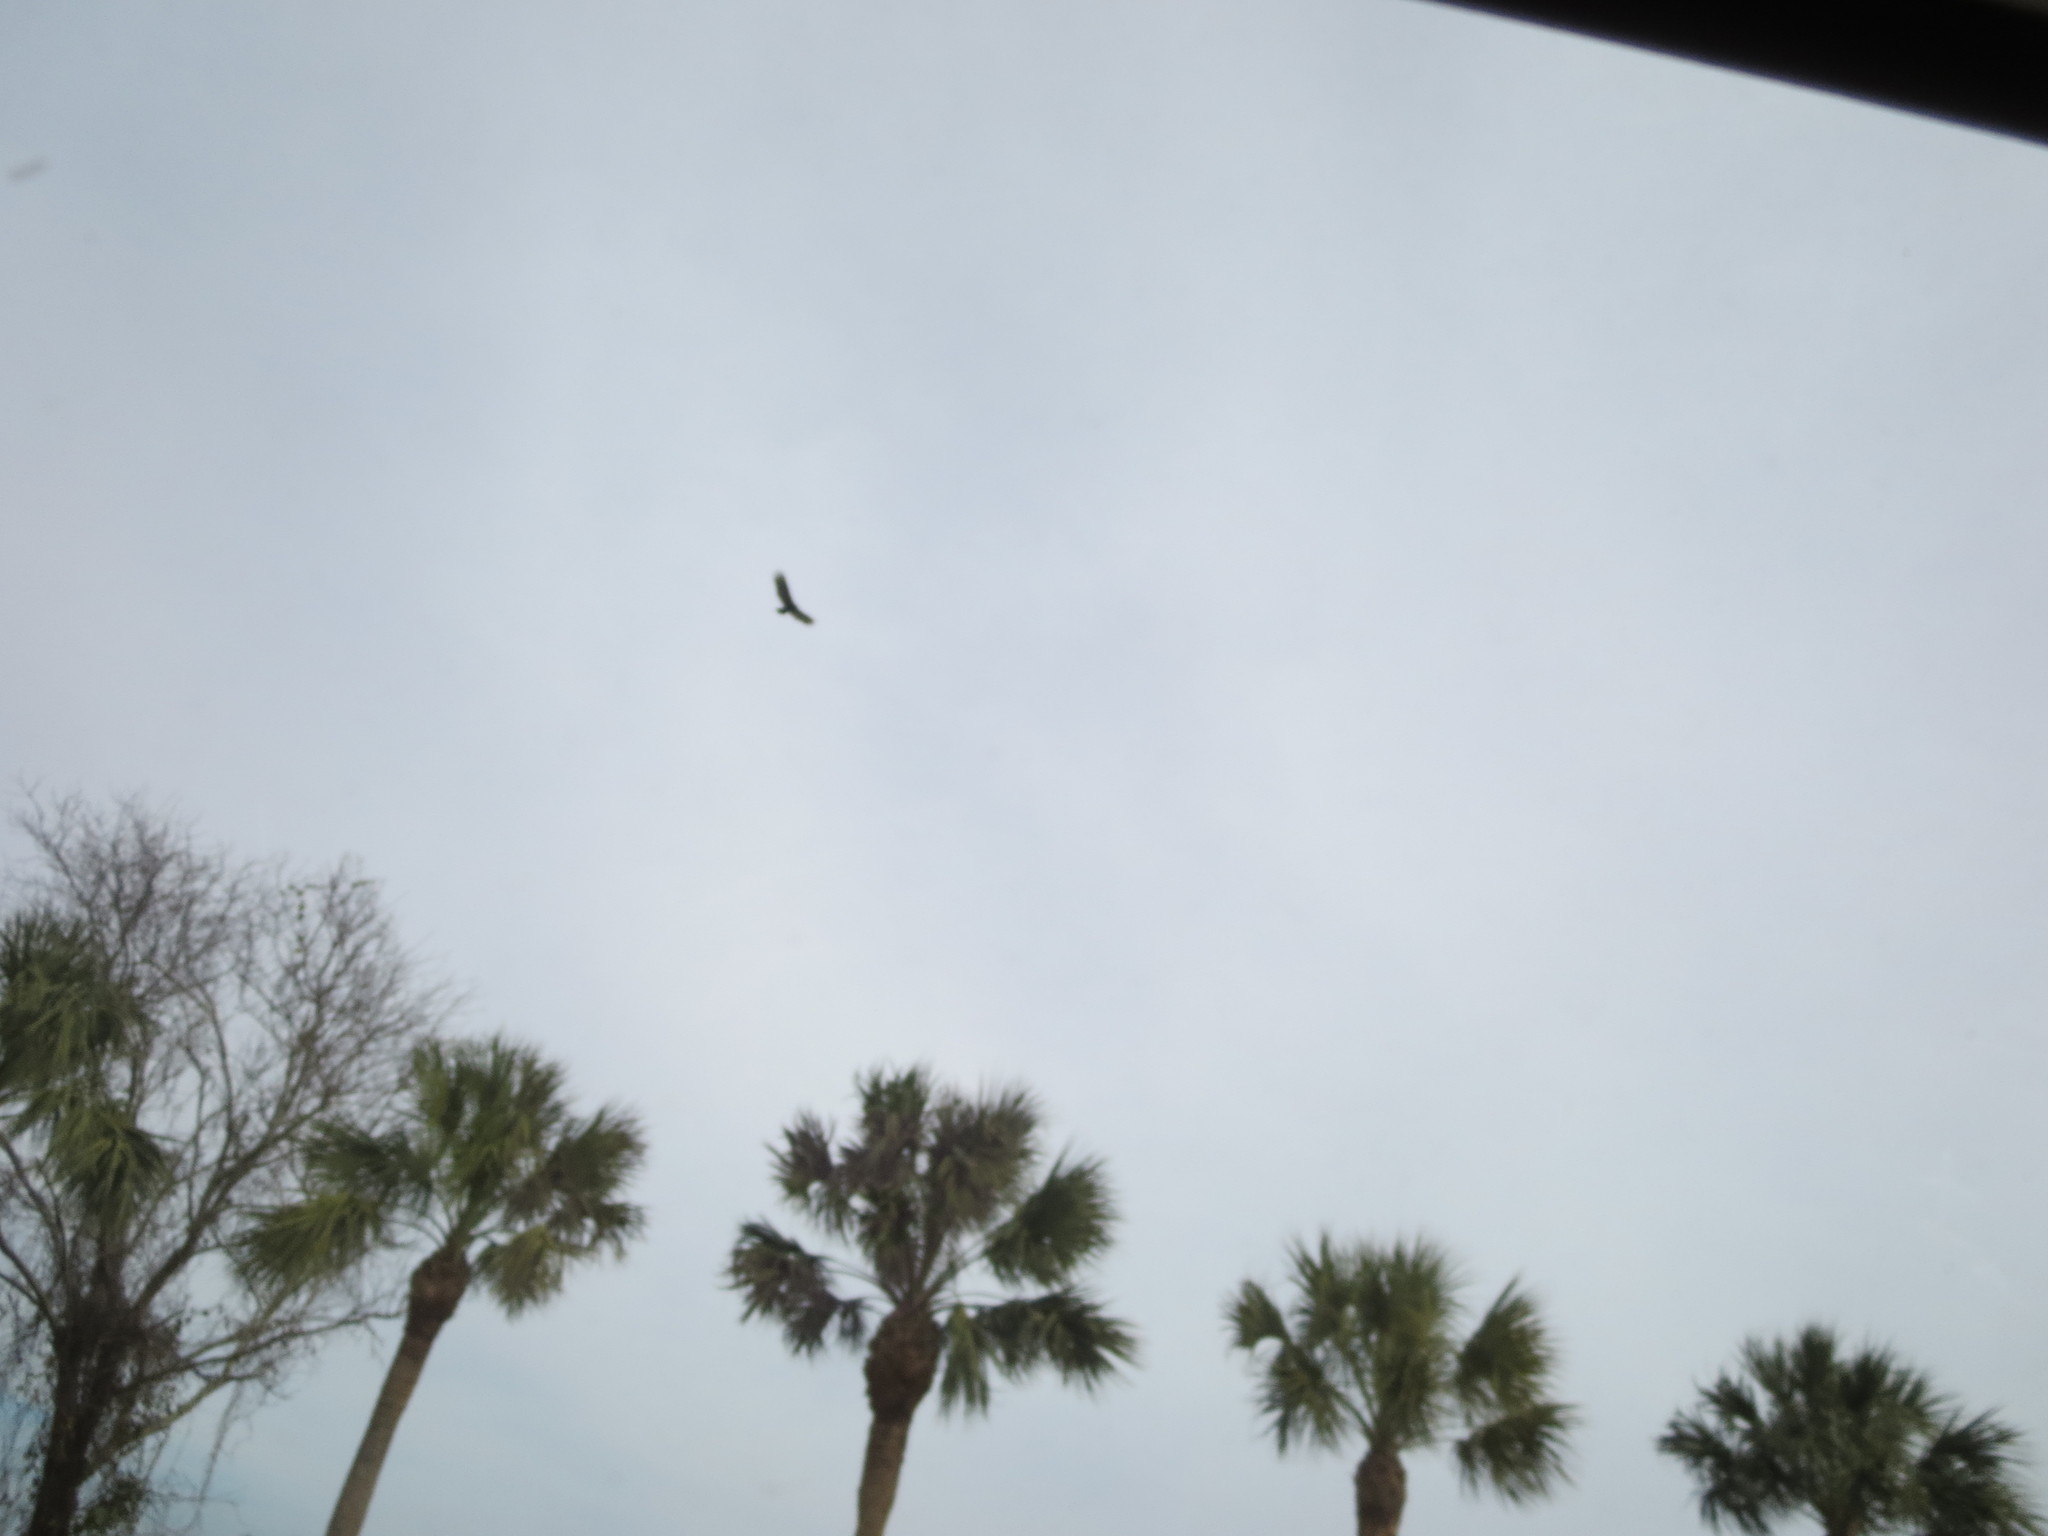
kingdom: Animalia
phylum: Chordata
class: Aves
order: Accipitriformes
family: Cathartidae
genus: Cathartes
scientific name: Cathartes aura
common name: Turkey vulture
